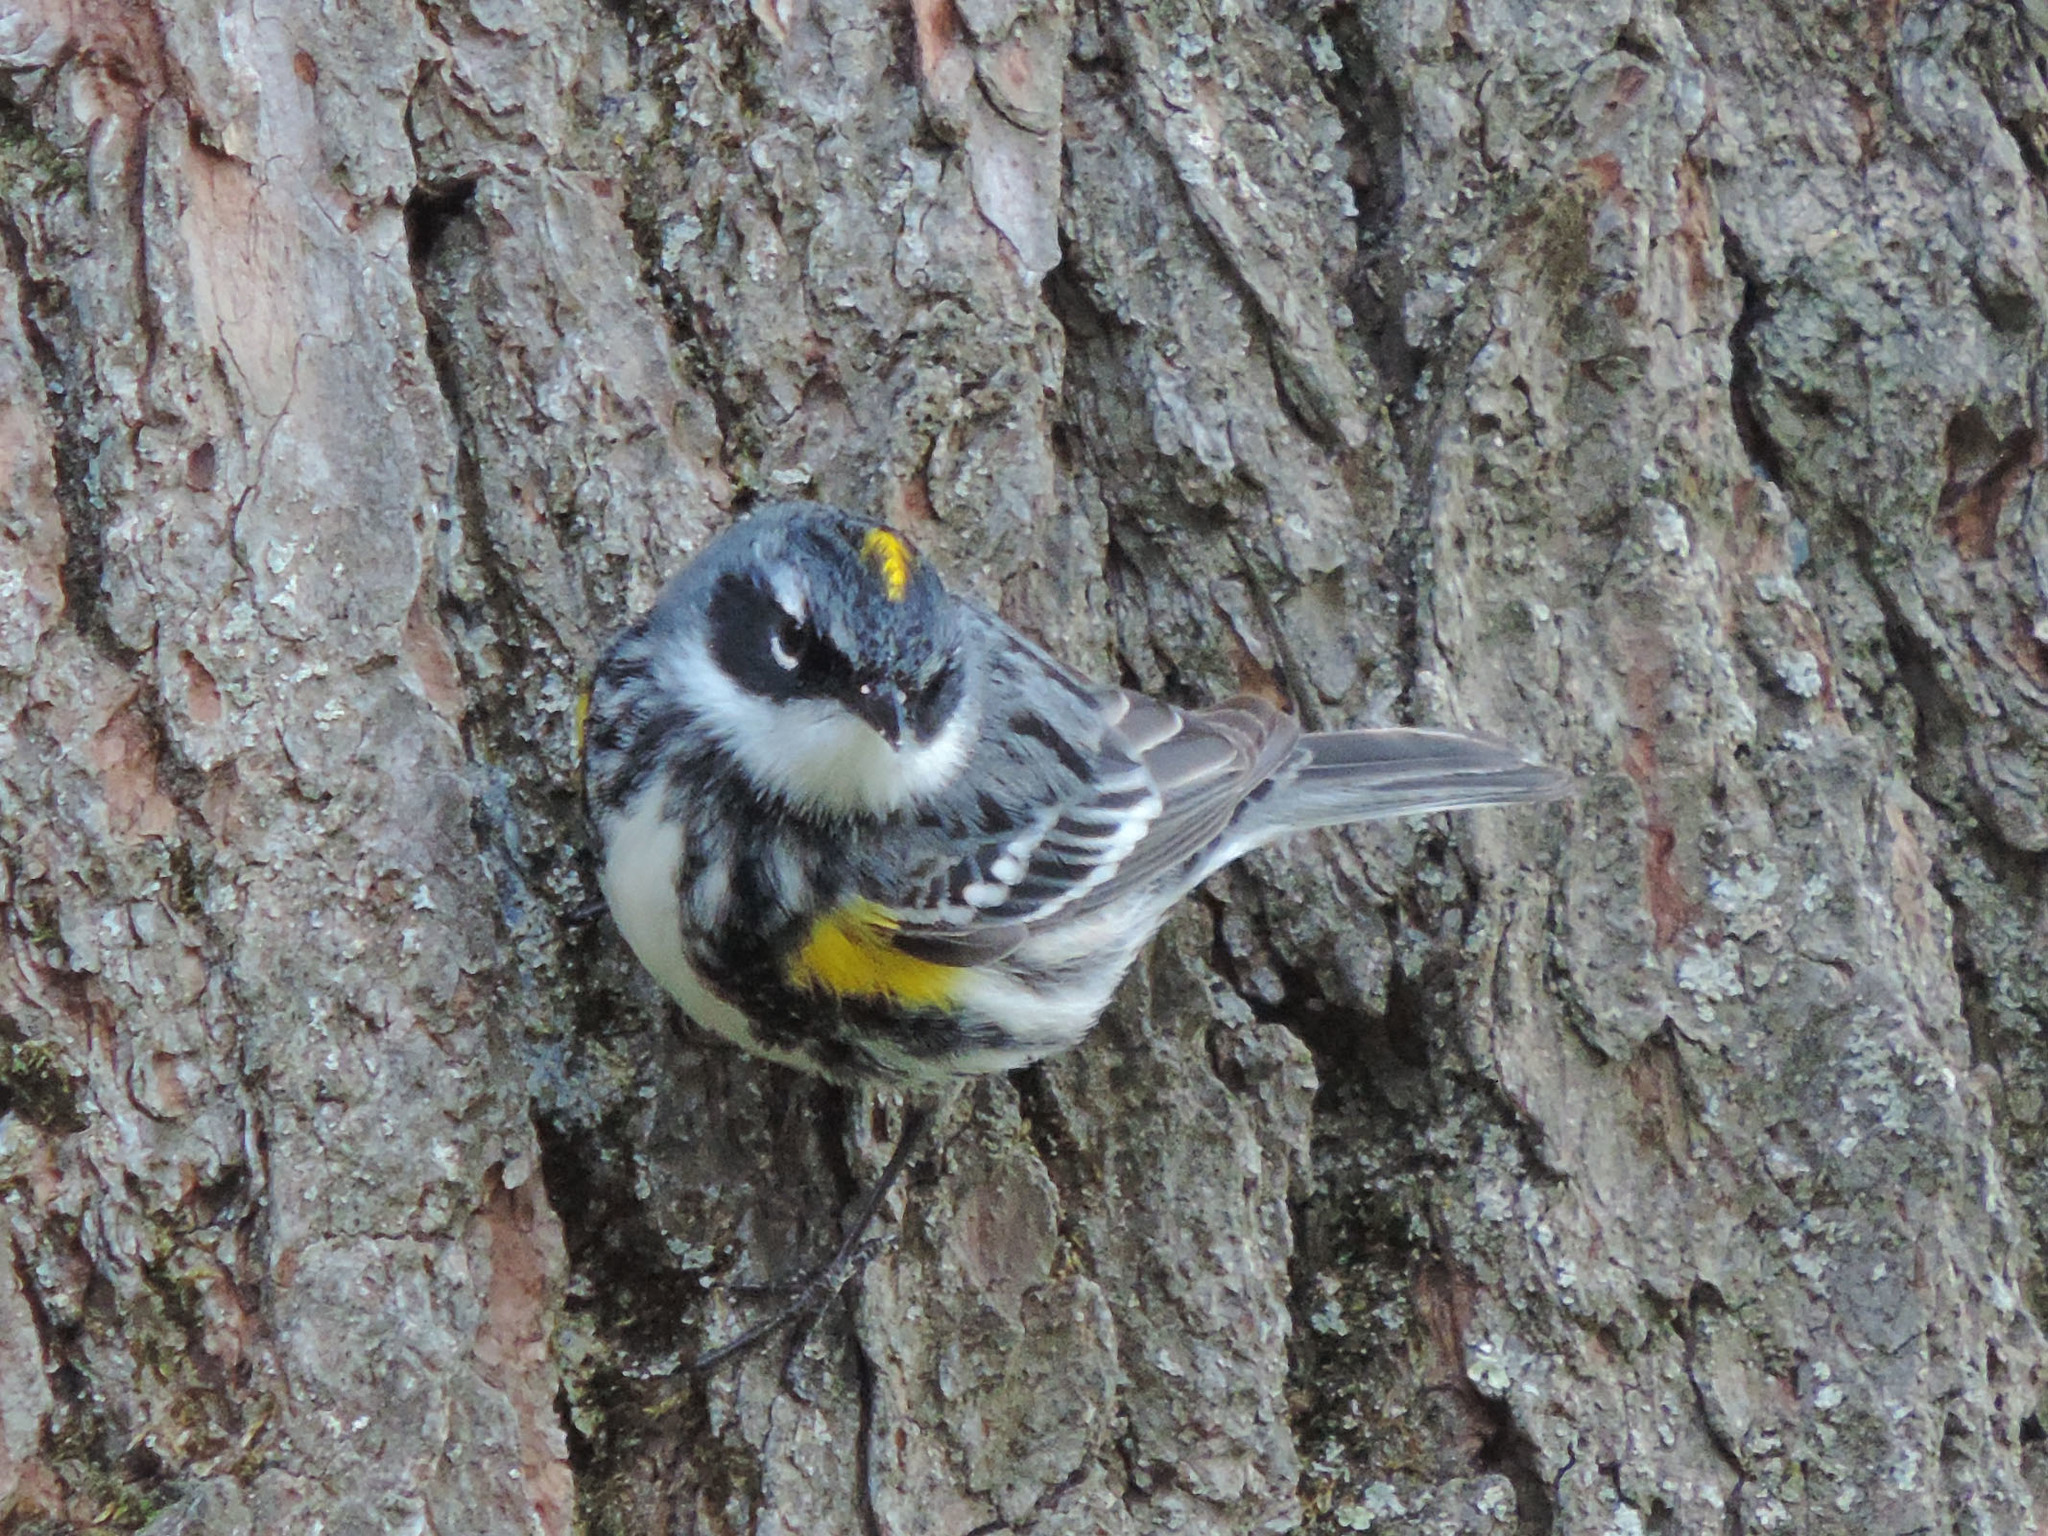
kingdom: Animalia
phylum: Chordata
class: Aves
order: Passeriformes
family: Parulidae
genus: Setophaga
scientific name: Setophaga coronata
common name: Myrtle warbler
